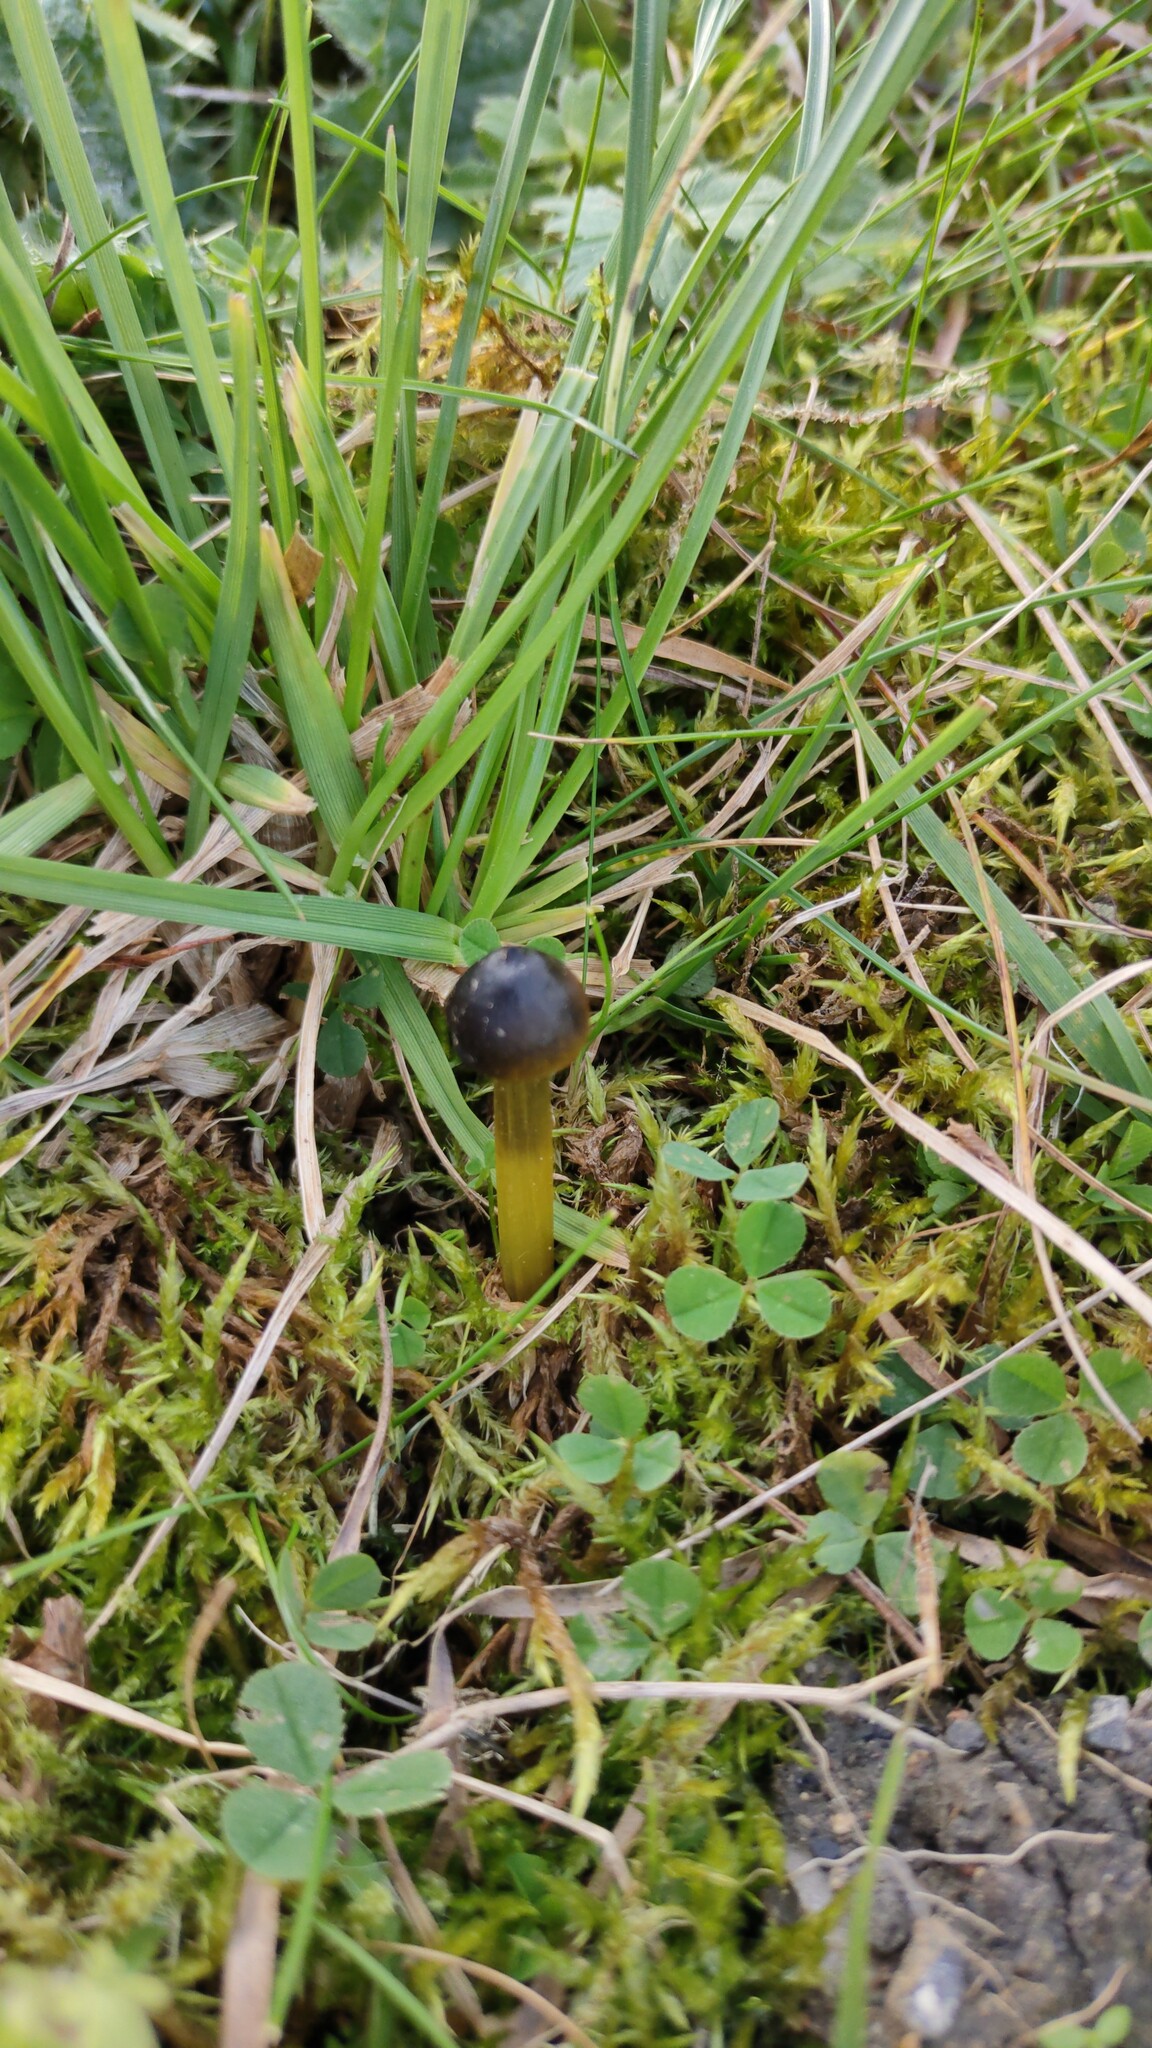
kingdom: Fungi
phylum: Basidiomycota
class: Agaricomycetes
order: Agaricales
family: Hygrophoraceae
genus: Hygrocybe
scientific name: Hygrocybe conica
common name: Blackening wax-cap
